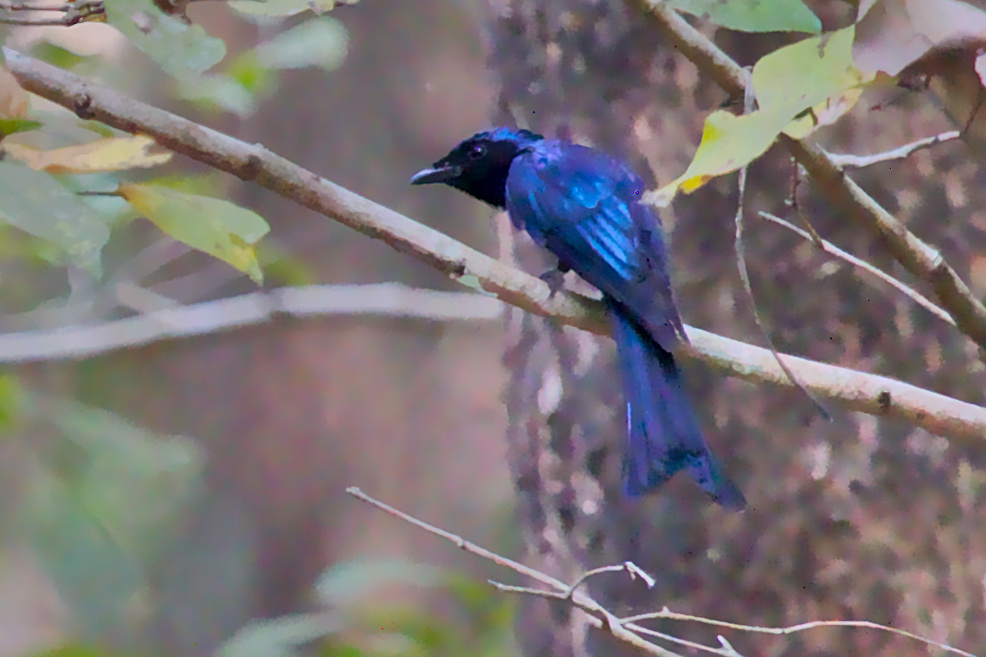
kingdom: Animalia
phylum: Chordata
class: Aves
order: Passeriformes
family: Dicruridae
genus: Dicrurus
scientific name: Dicrurus aeneus
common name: Bronzed drongo
